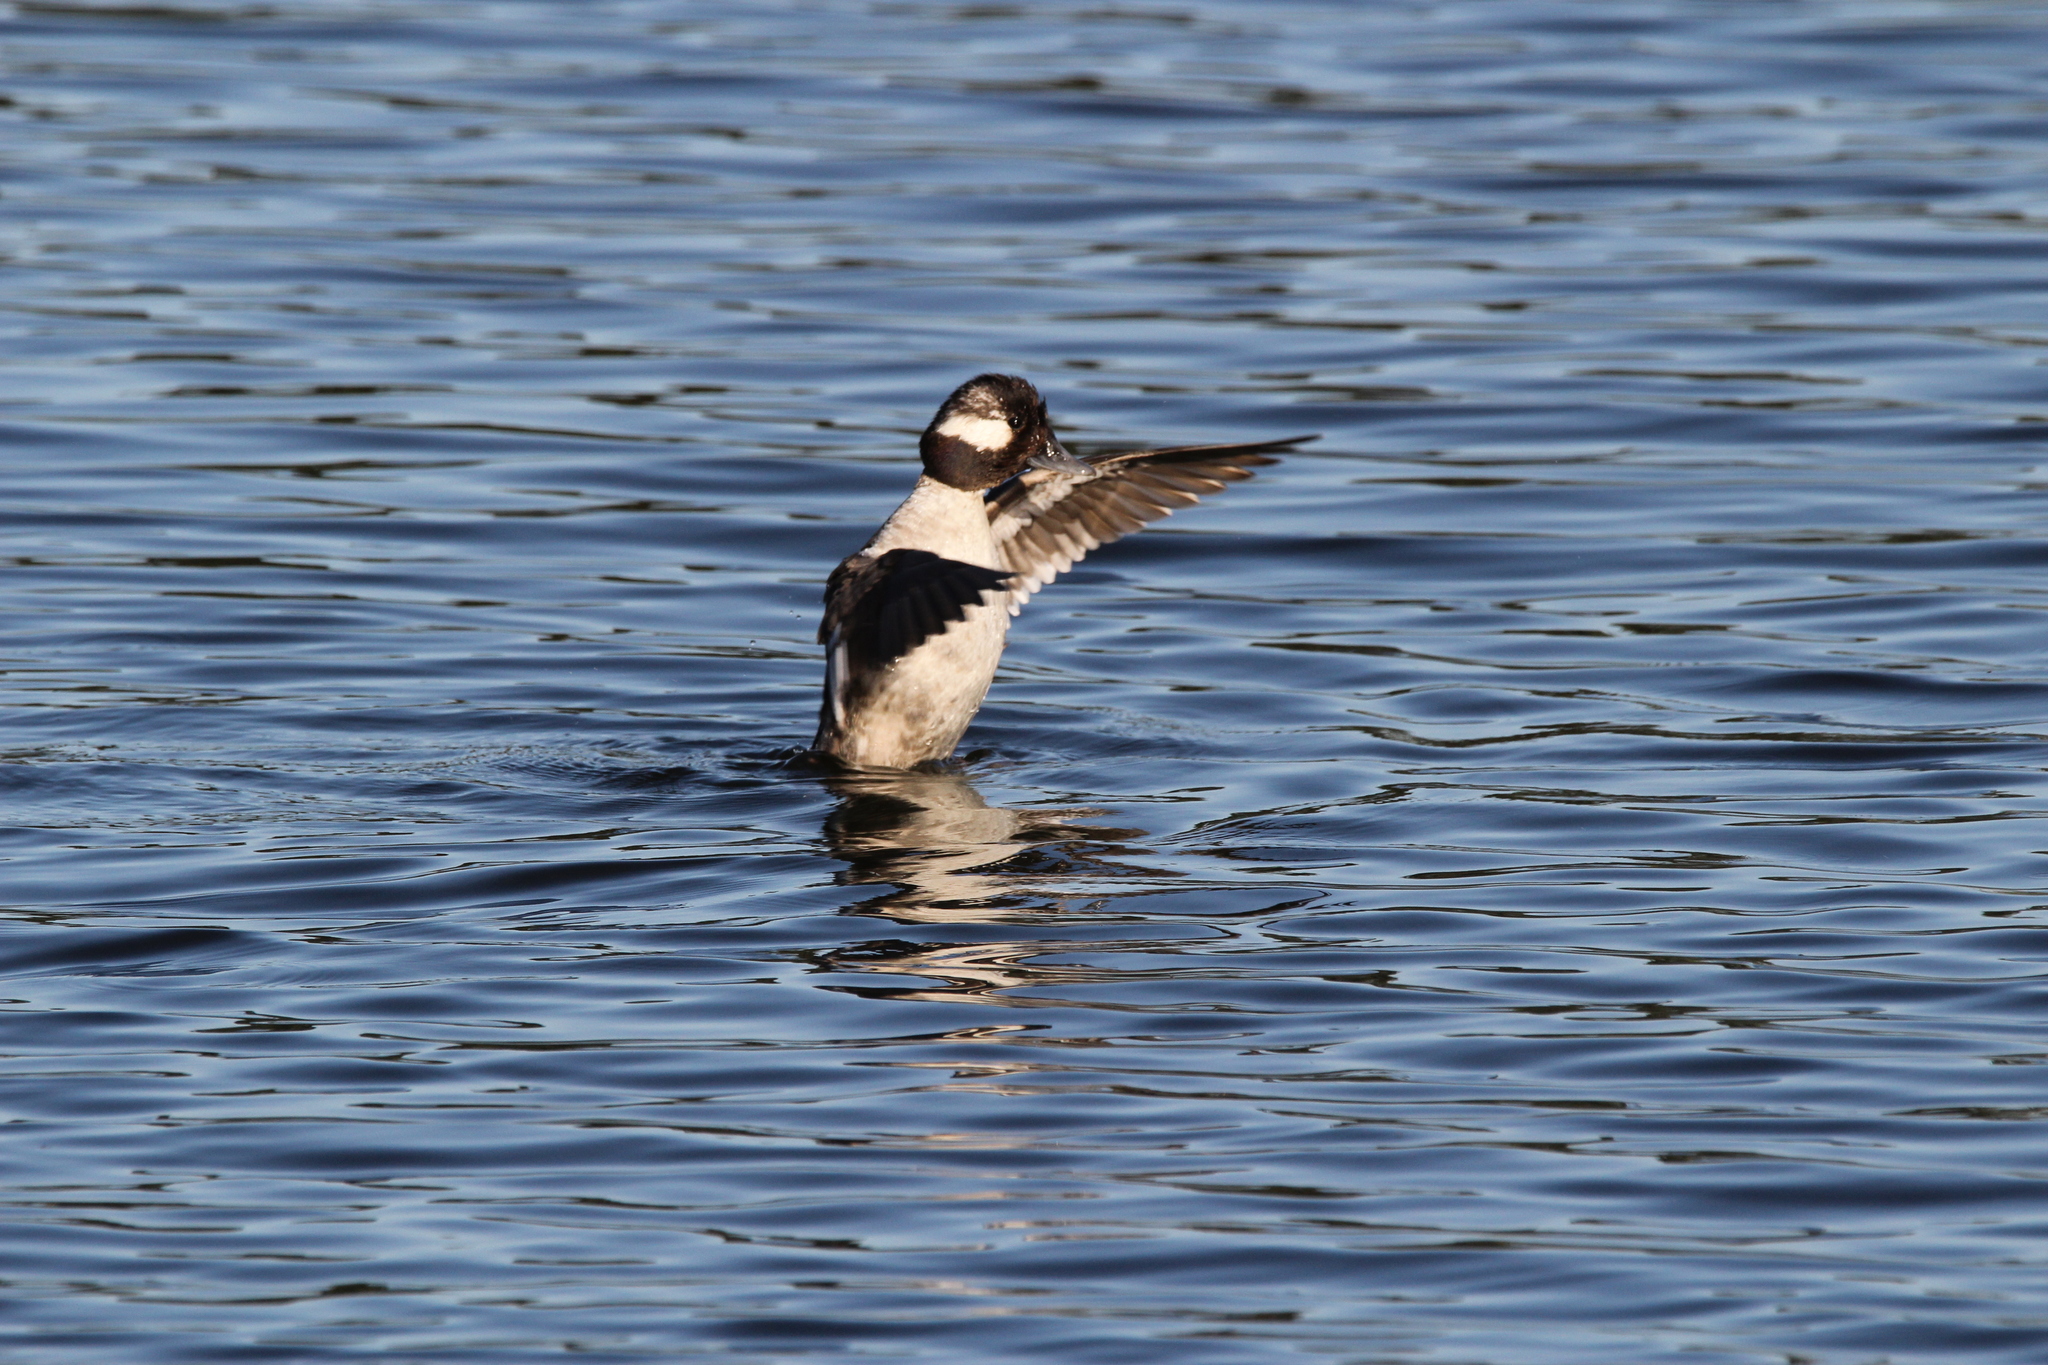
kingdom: Animalia
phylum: Chordata
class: Aves
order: Anseriformes
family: Anatidae
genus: Bucephala
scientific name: Bucephala albeola
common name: Bufflehead
